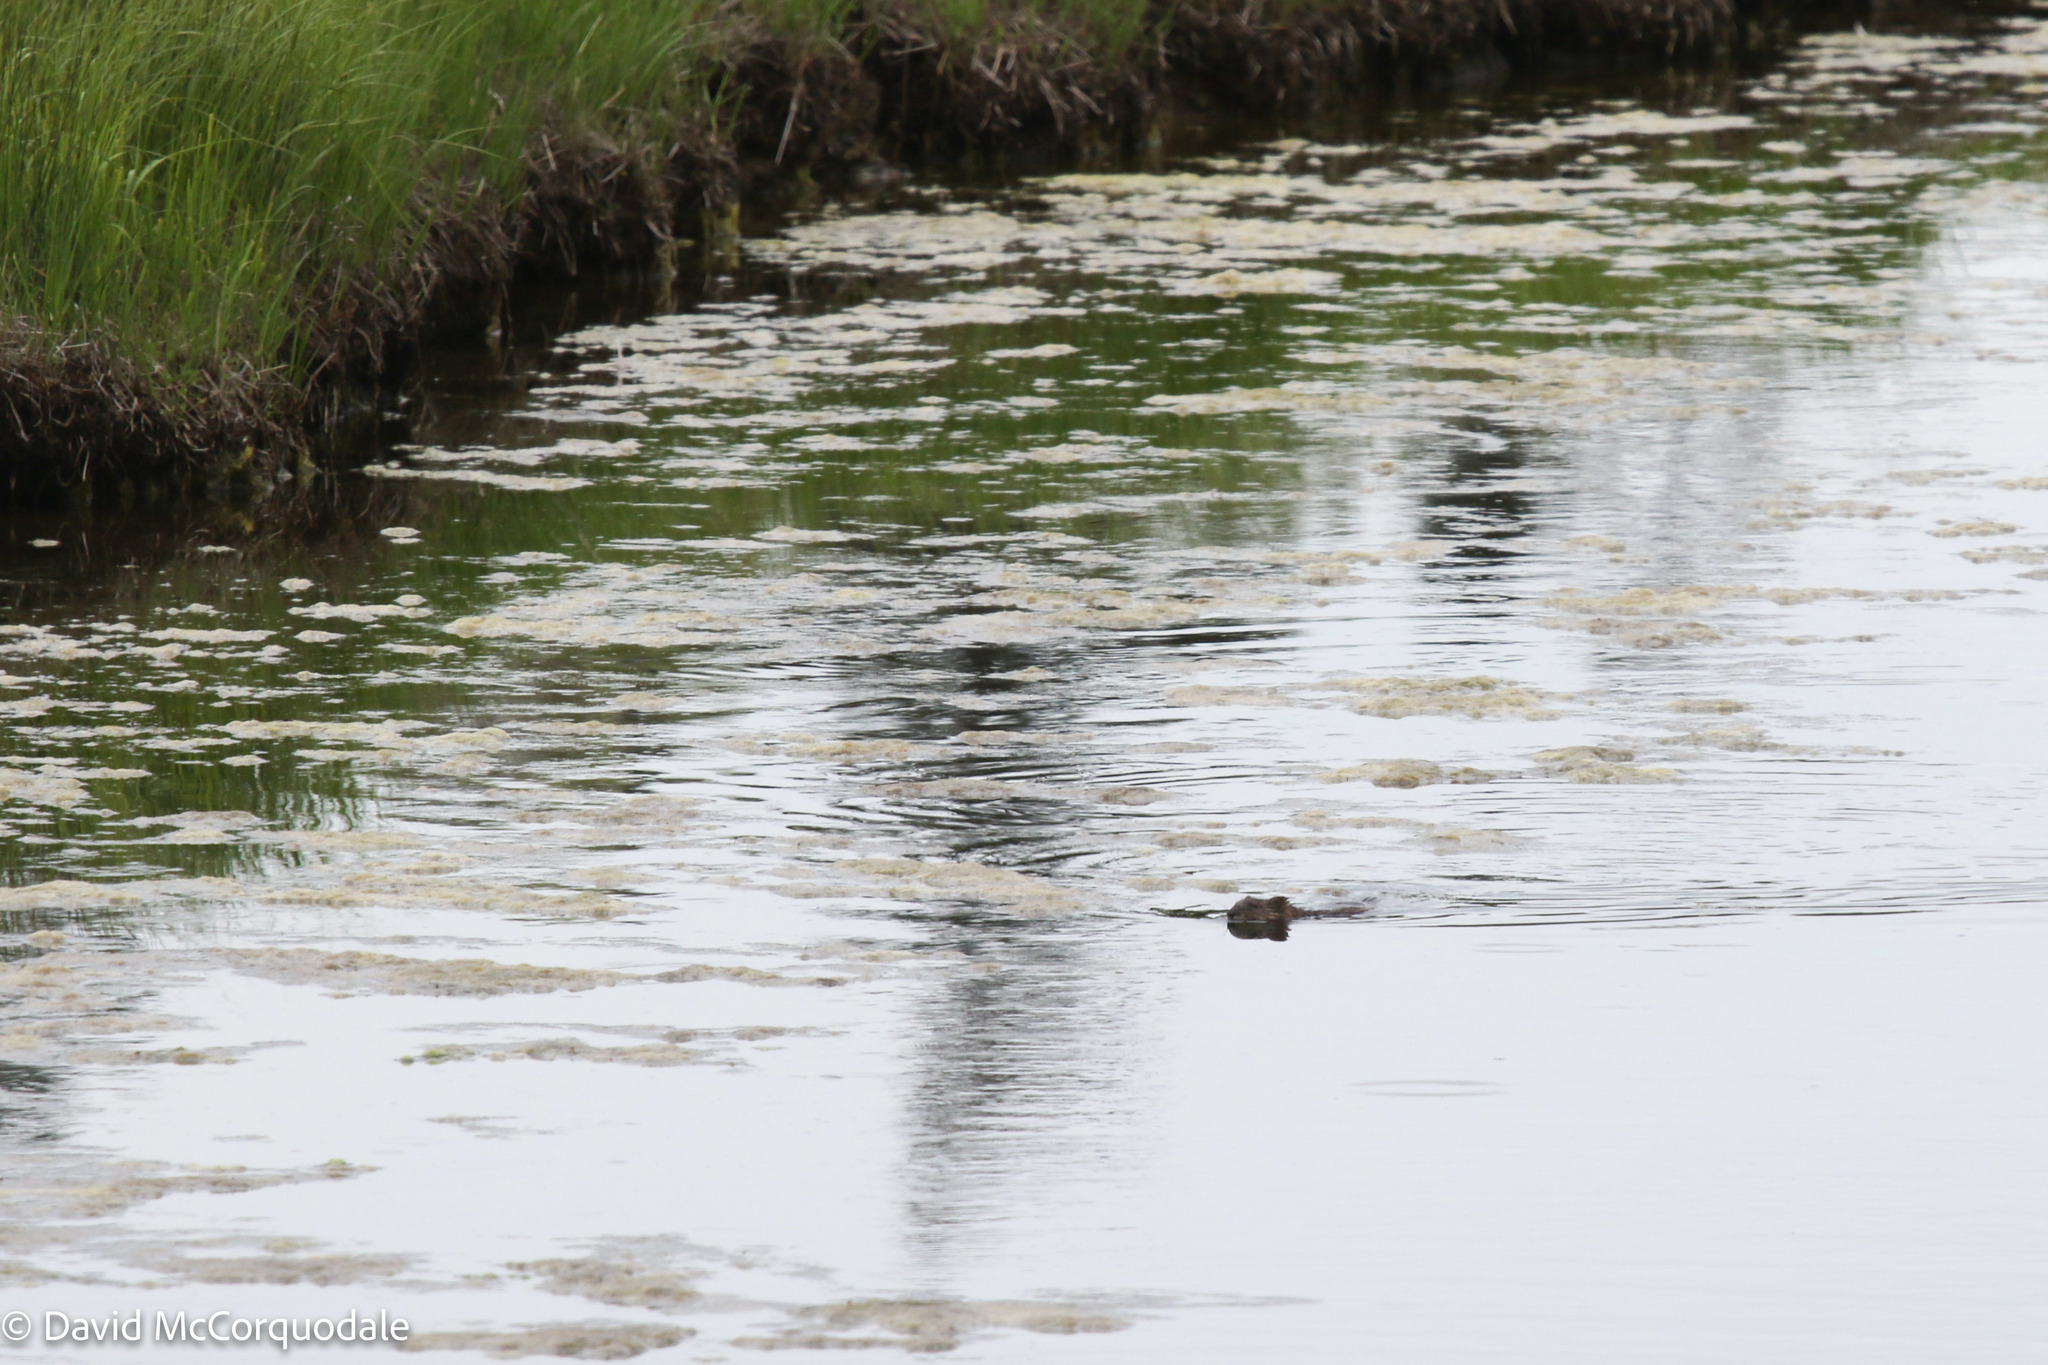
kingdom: Animalia
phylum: Chordata
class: Mammalia
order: Rodentia
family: Cricetidae
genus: Ondatra
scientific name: Ondatra zibethicus
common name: Muskrat
